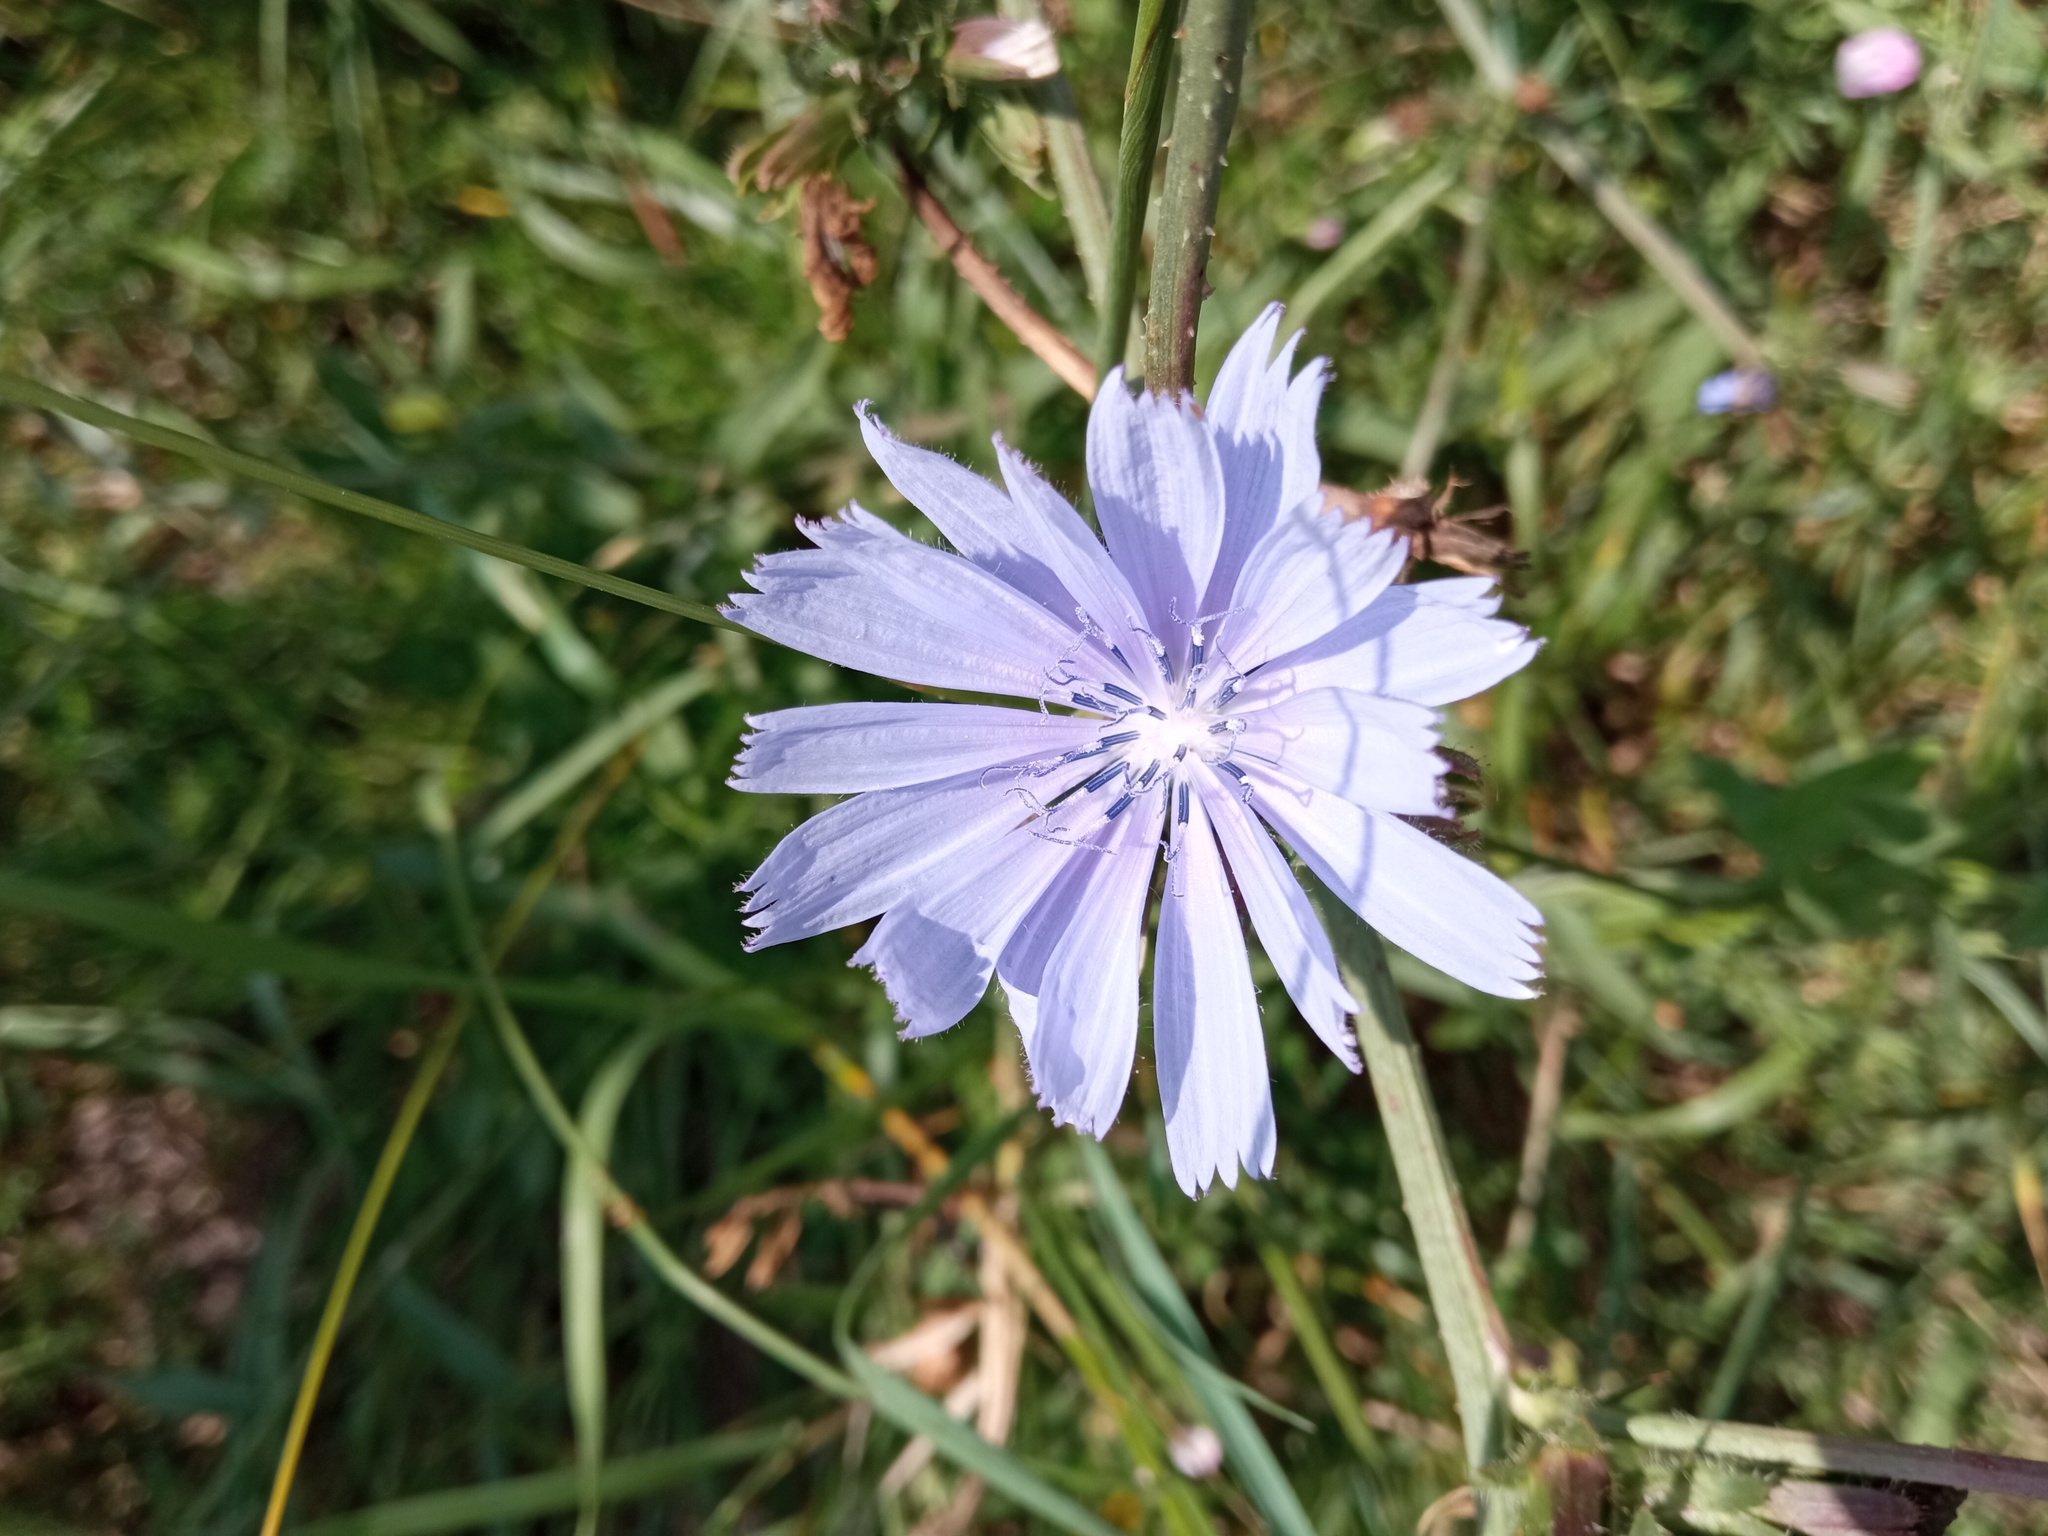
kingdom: Plantae
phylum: Tracheophyta
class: Magnoliopsida
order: Asterales
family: Asteraceae
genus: Cichorium
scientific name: Cichorium intybus
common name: Chicory
